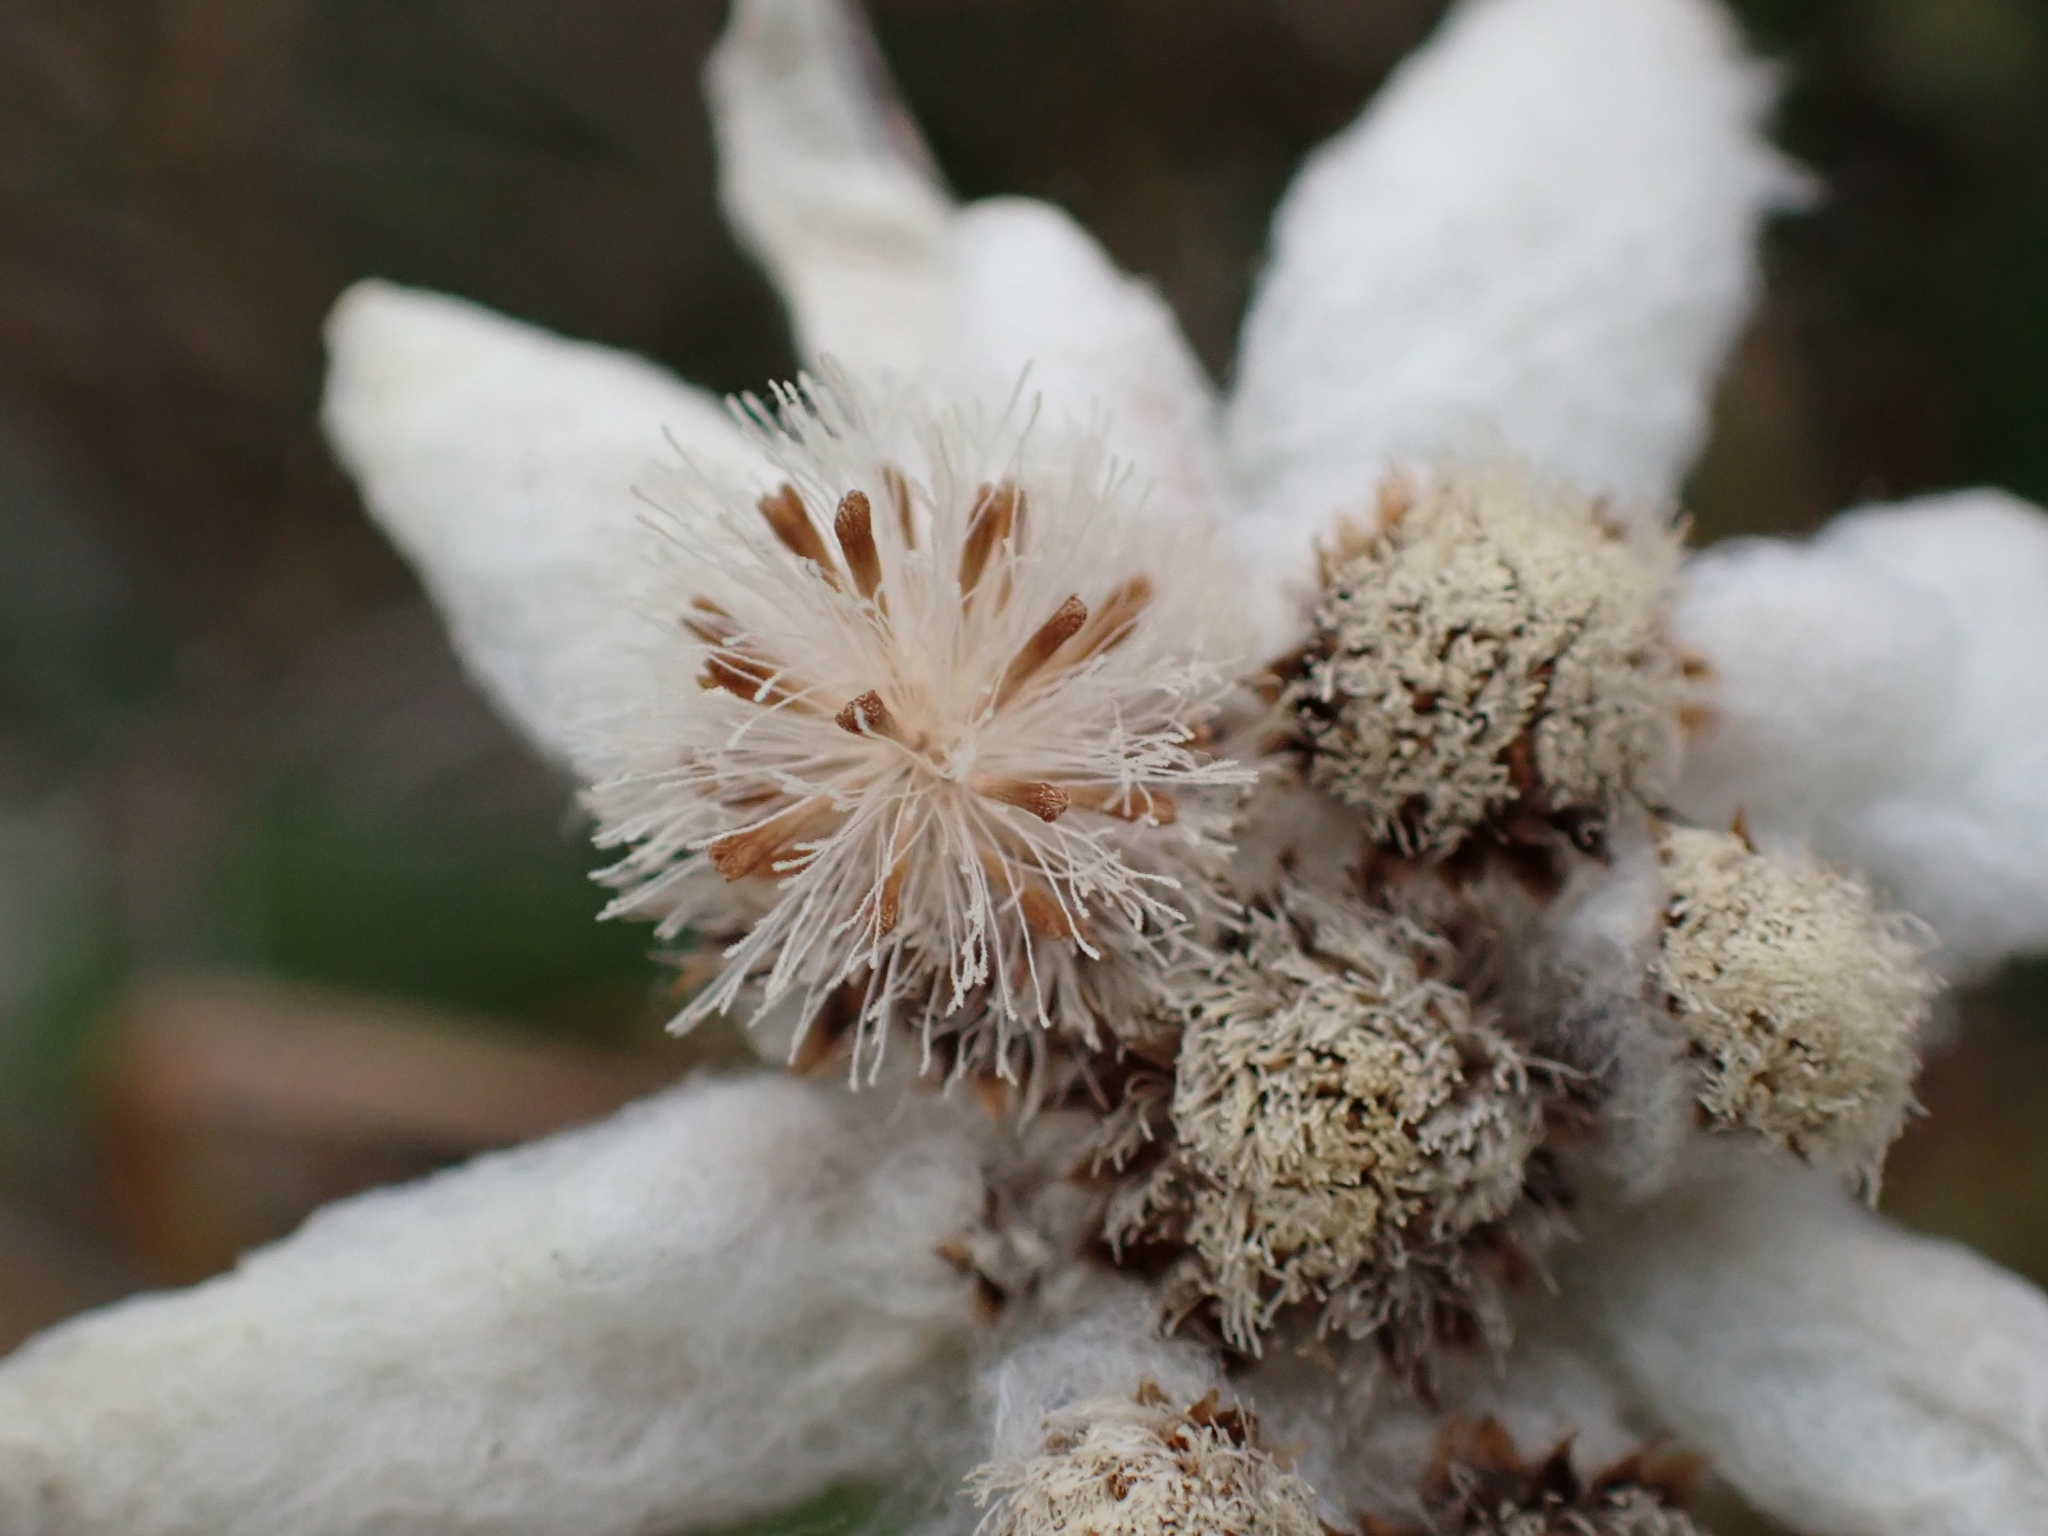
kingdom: Plantae
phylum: Tracheophyta
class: Magnoliopsida
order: Asterales
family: Asteraceae
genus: Leontopodium
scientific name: Leontopodium nivale
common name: Edelweiss
